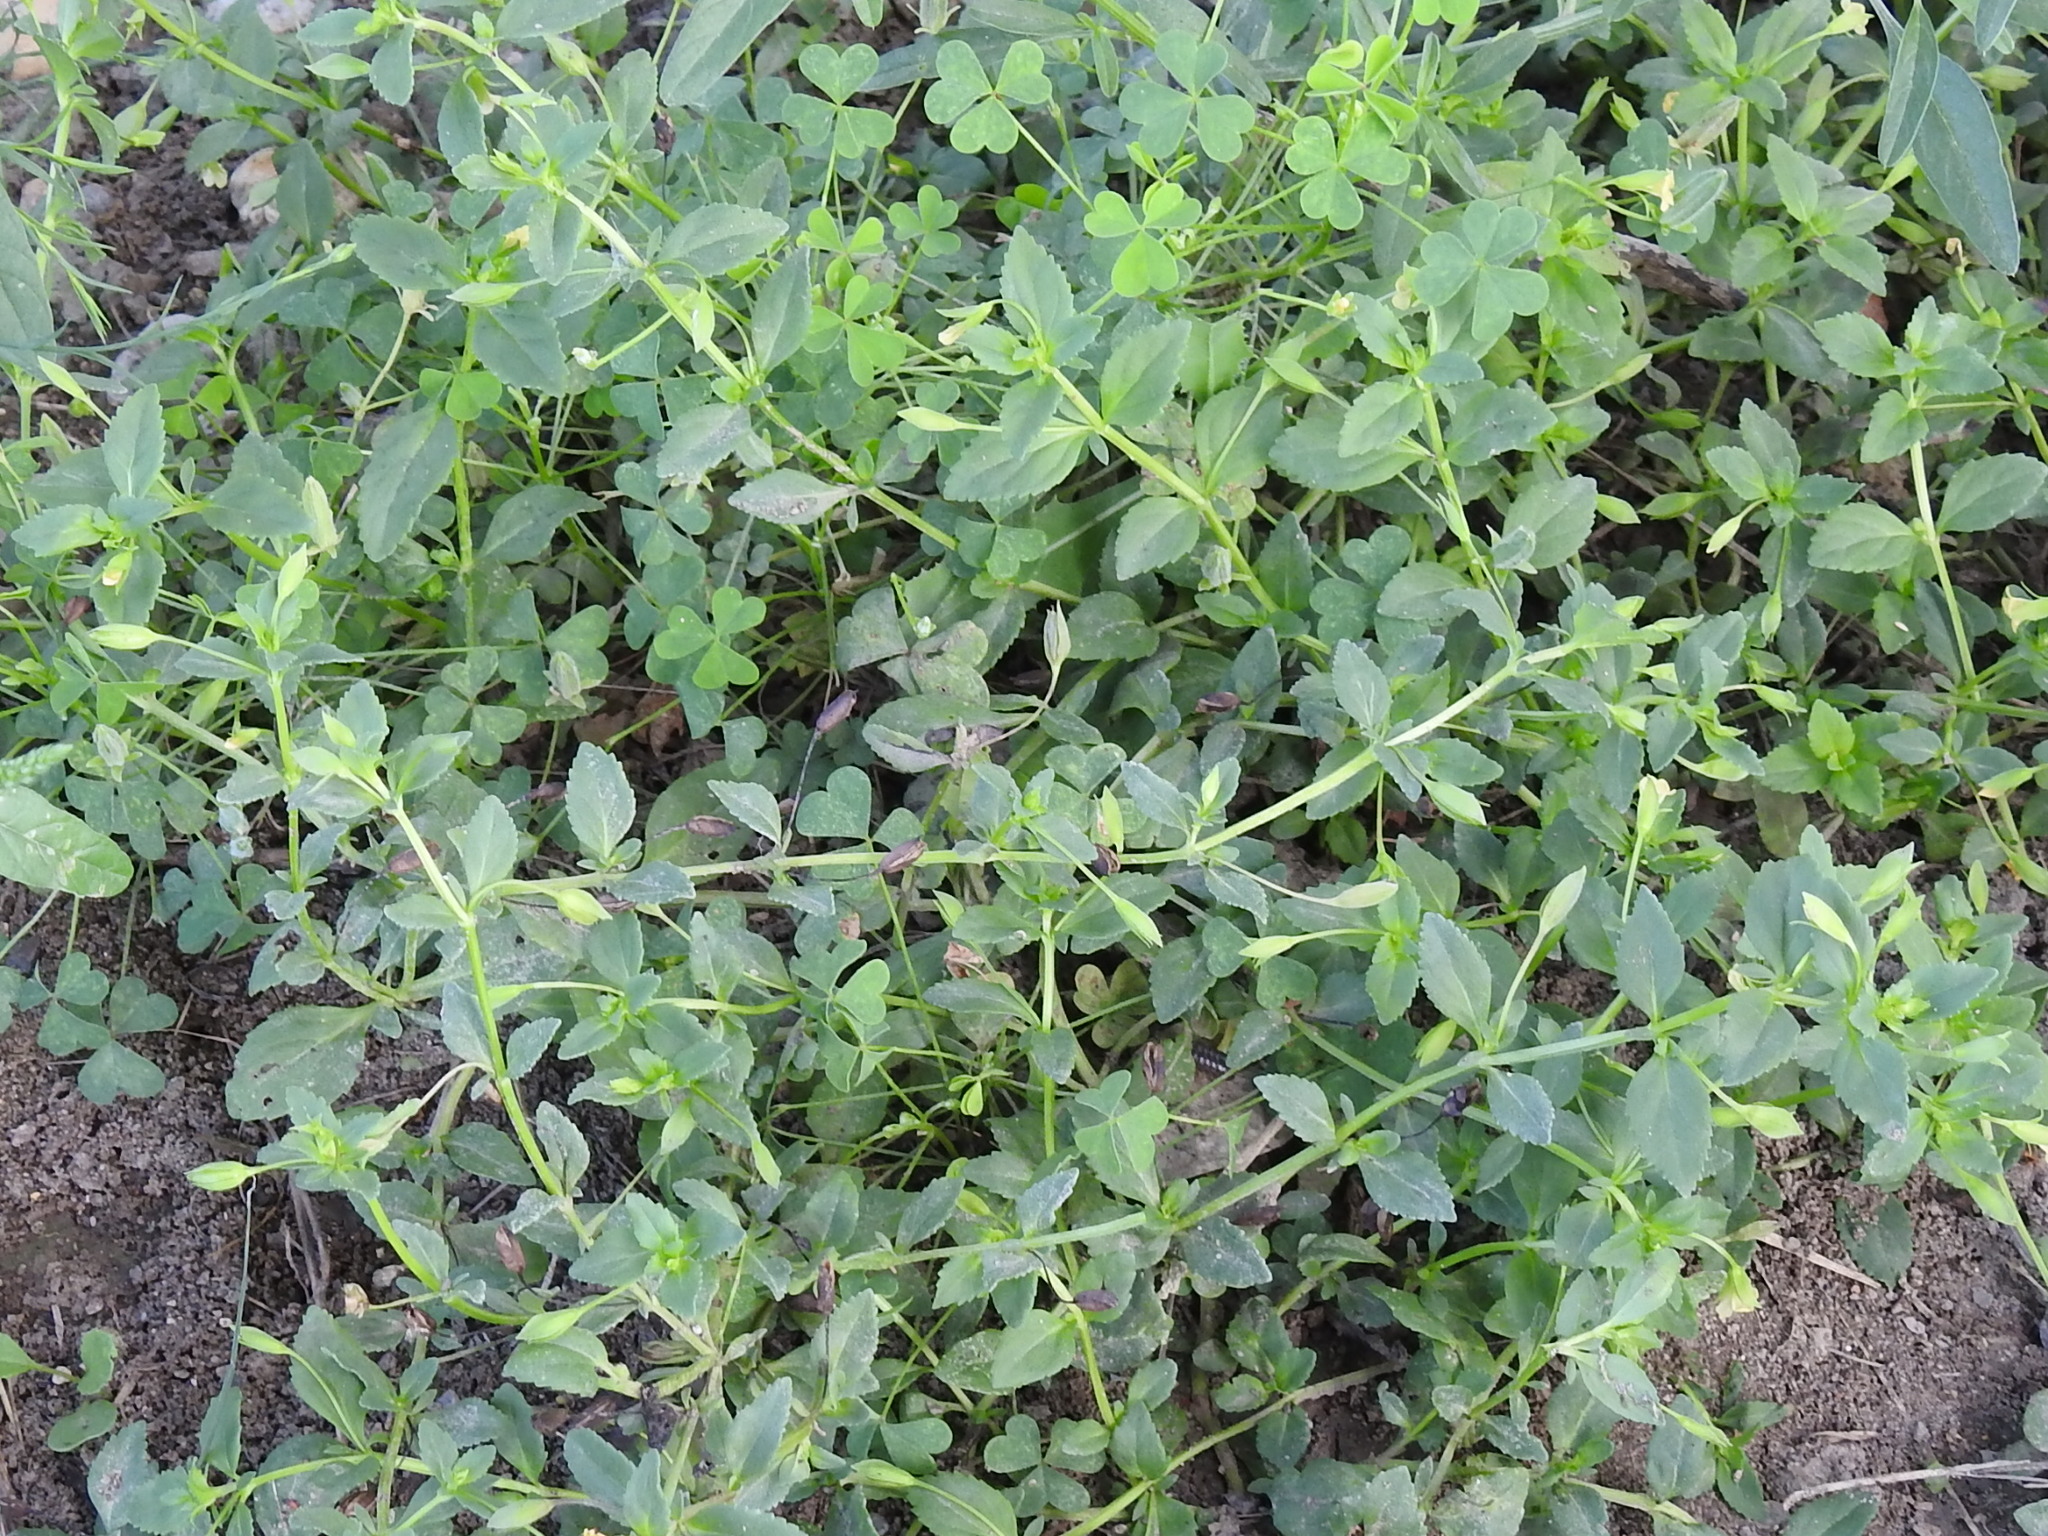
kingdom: Plantae
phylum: Tracheophyta
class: Magnoliopsida
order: Lamiales
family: Plantaginaceae
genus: Mecardonia
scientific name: Mecardonia procumbens
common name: Baby jump-up
